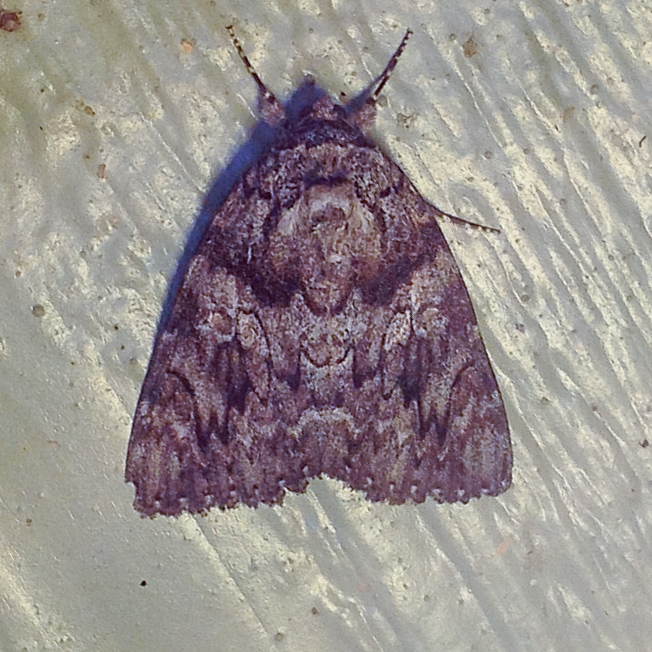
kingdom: Animalia
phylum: Arthropoda
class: Insecta
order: Lepidoptera
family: Erebidae
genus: Catocala
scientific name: Catocala ilia
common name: Ilia underwing
